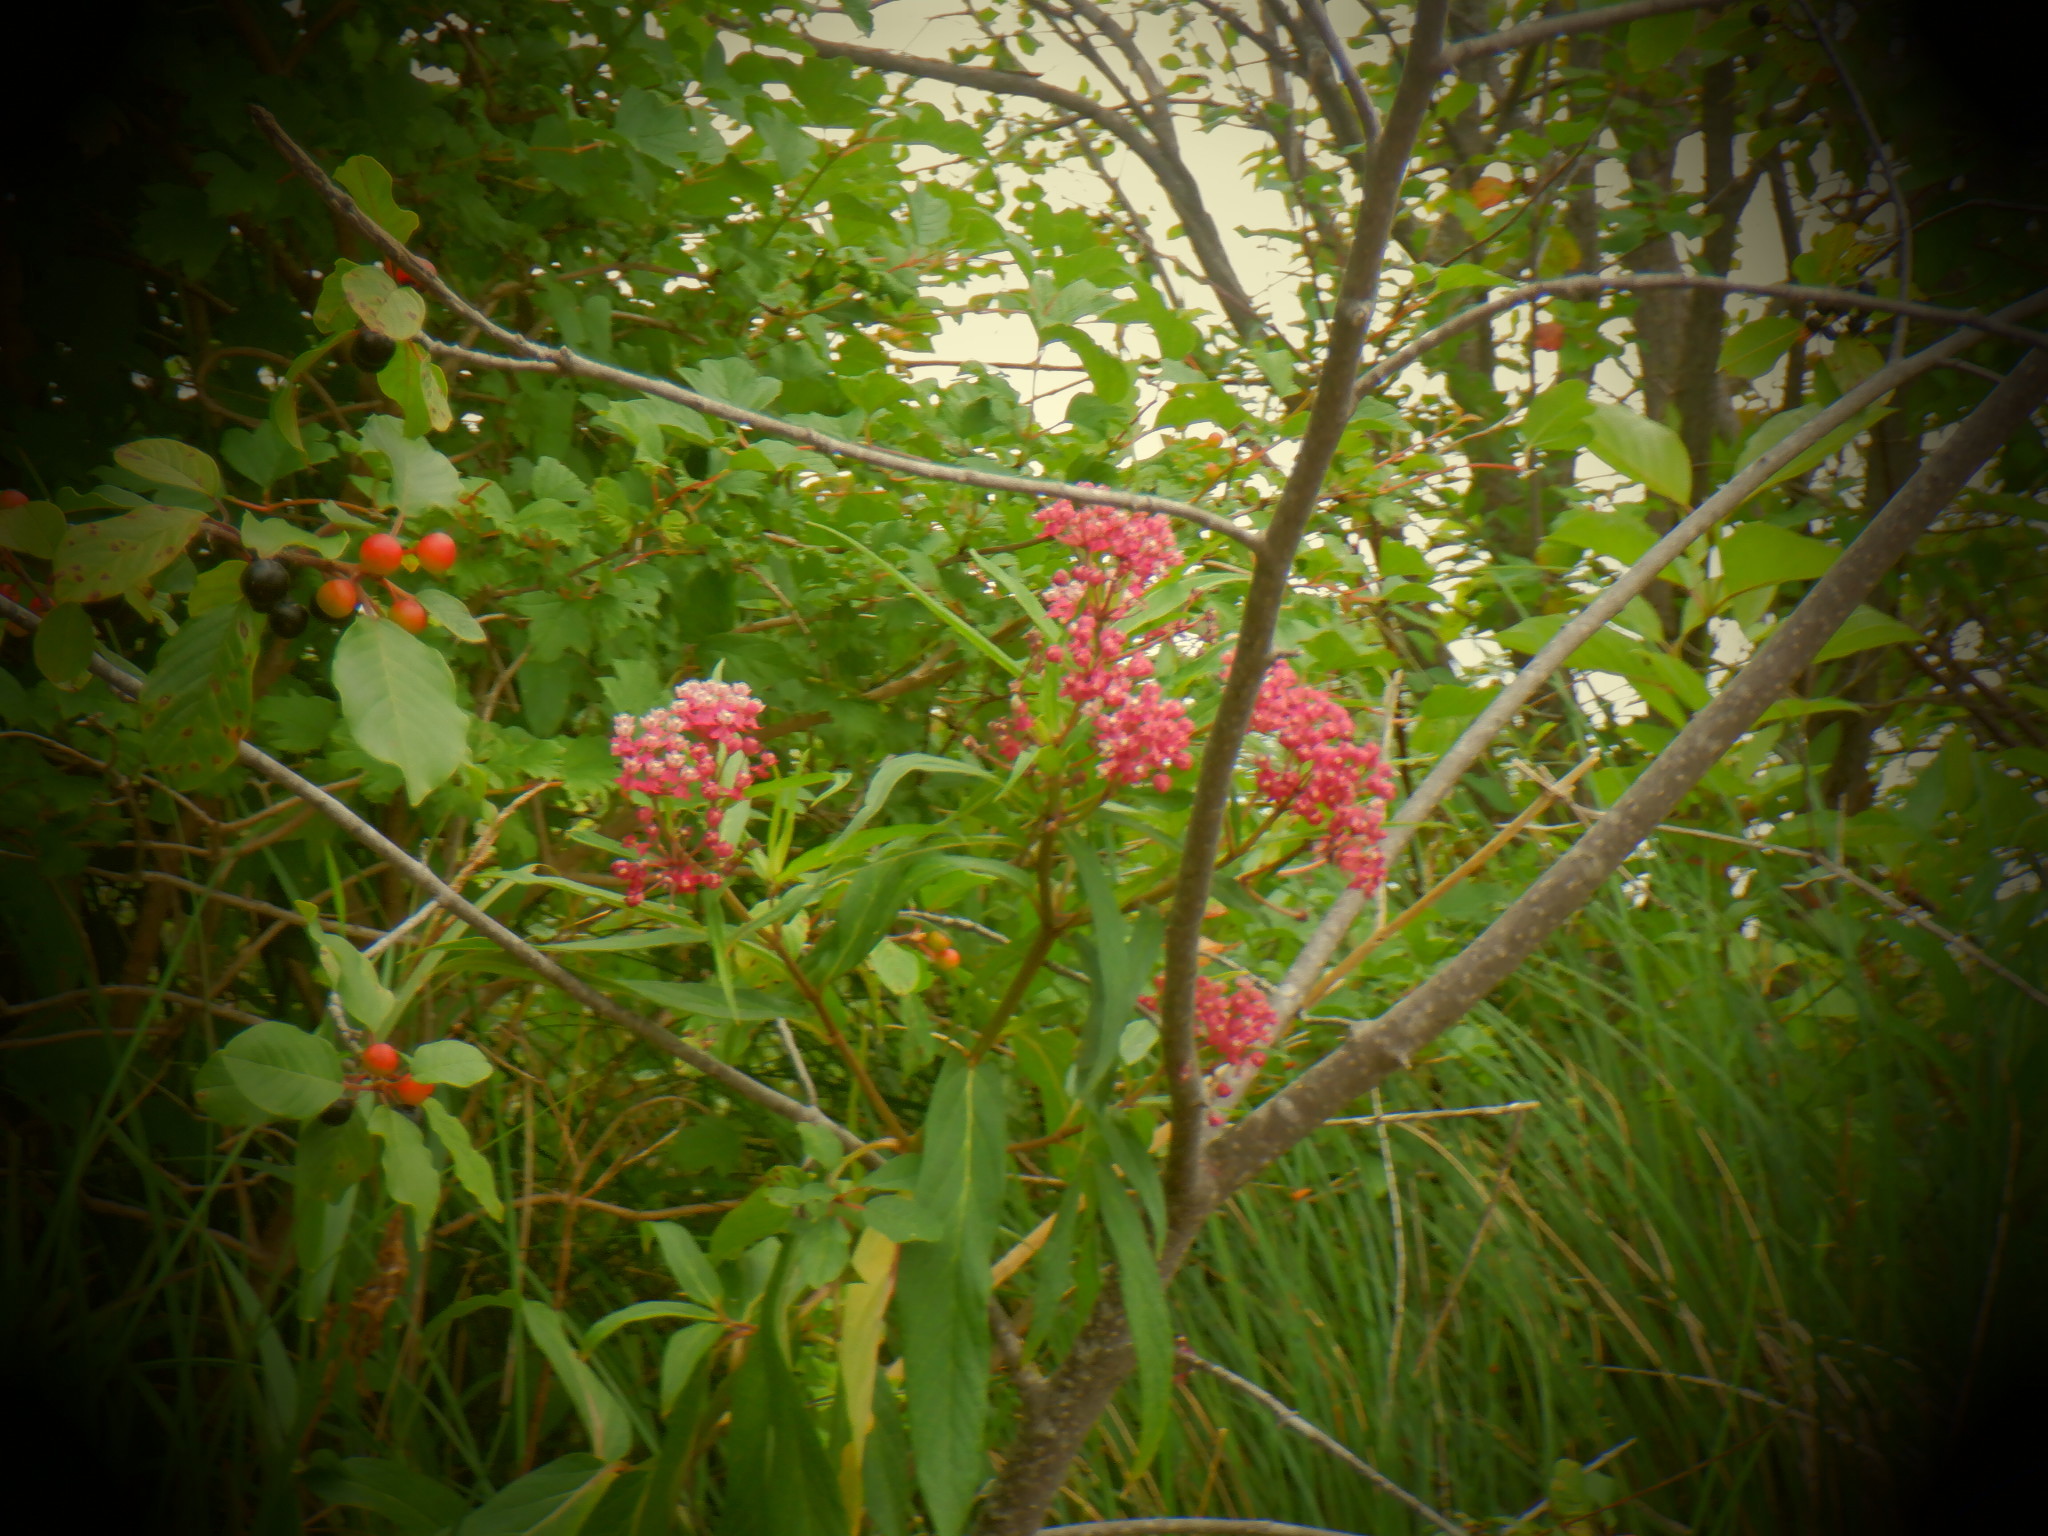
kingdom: Plantae
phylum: Tracheophyta
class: Magnoliopsida
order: Gentianales
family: Apocynaceae
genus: Asclepias
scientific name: Asclepias incarnata
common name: Swamp milkweed
